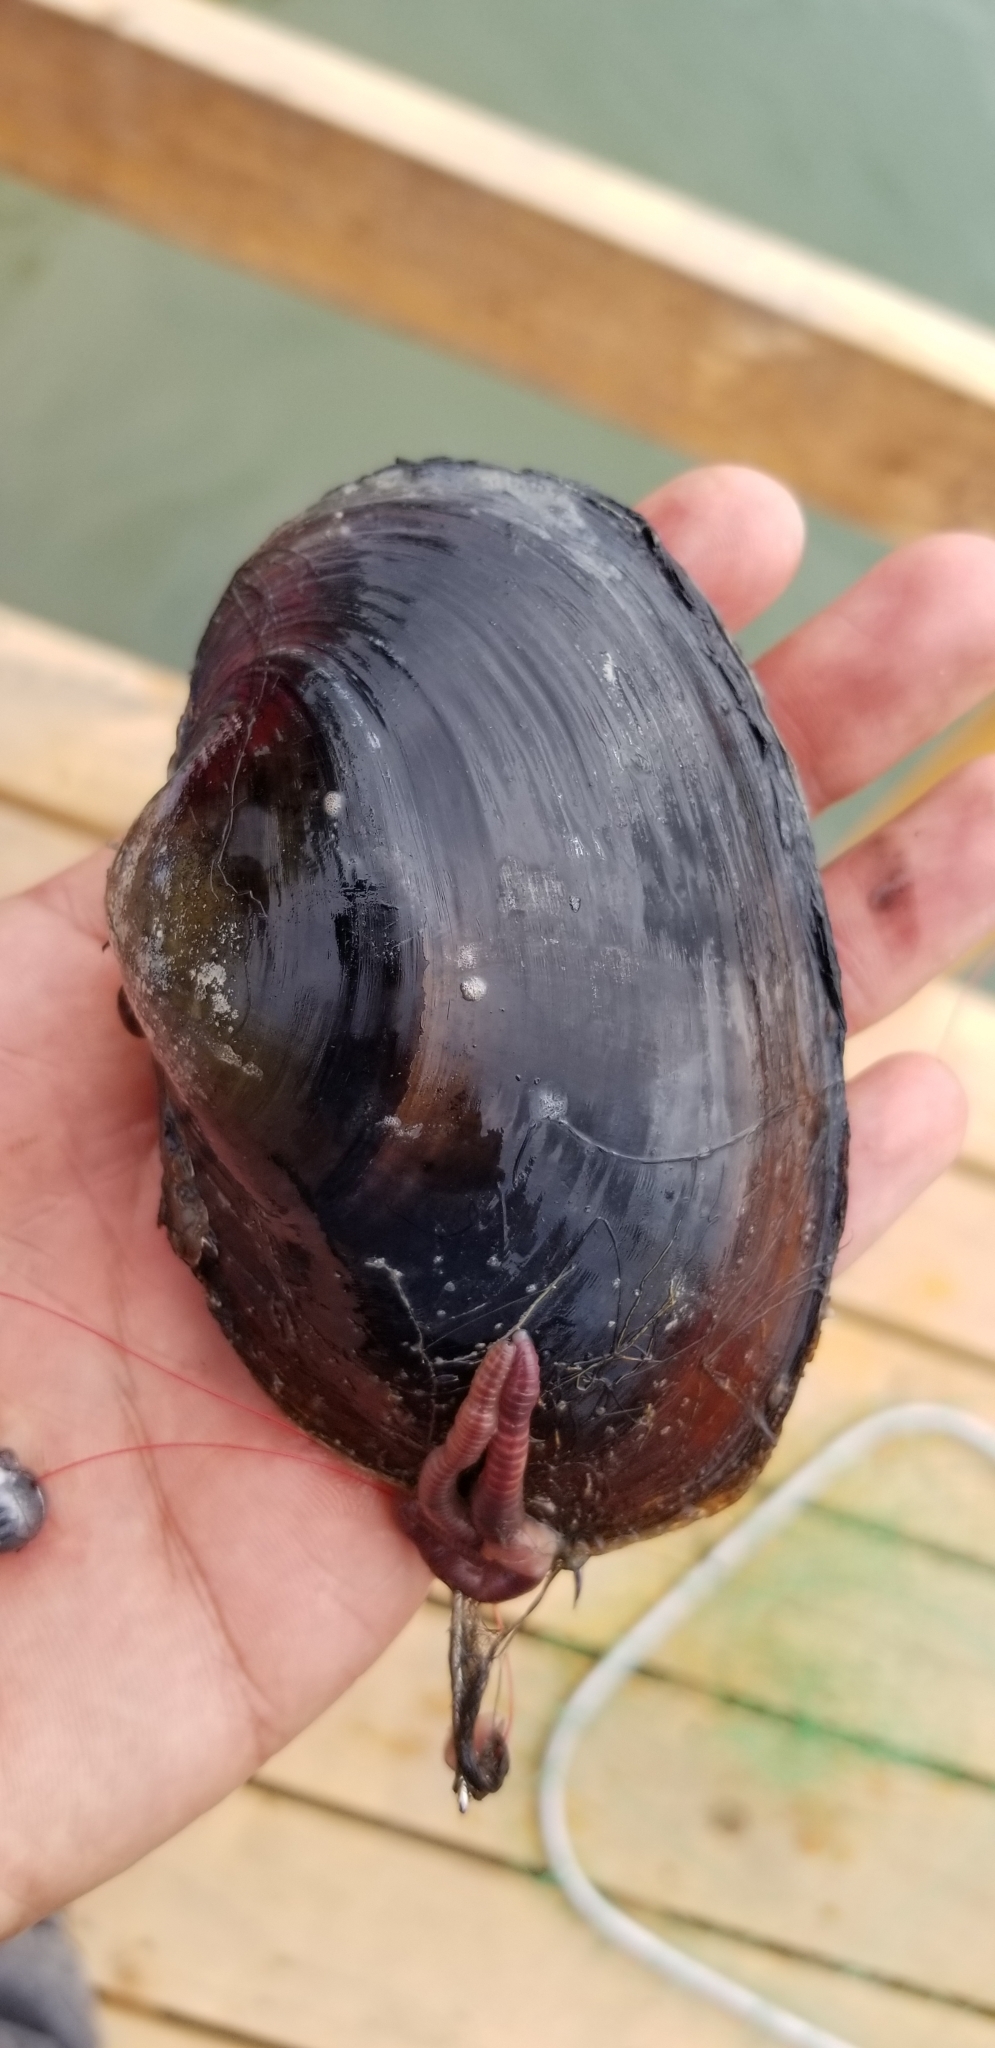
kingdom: Animalia
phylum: Mollusca
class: Bivalvia
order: Unionida
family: Unionidae
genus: Cyrtonaias
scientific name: Cyrtonaias tampicoensis
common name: Tampico pearlymussel
